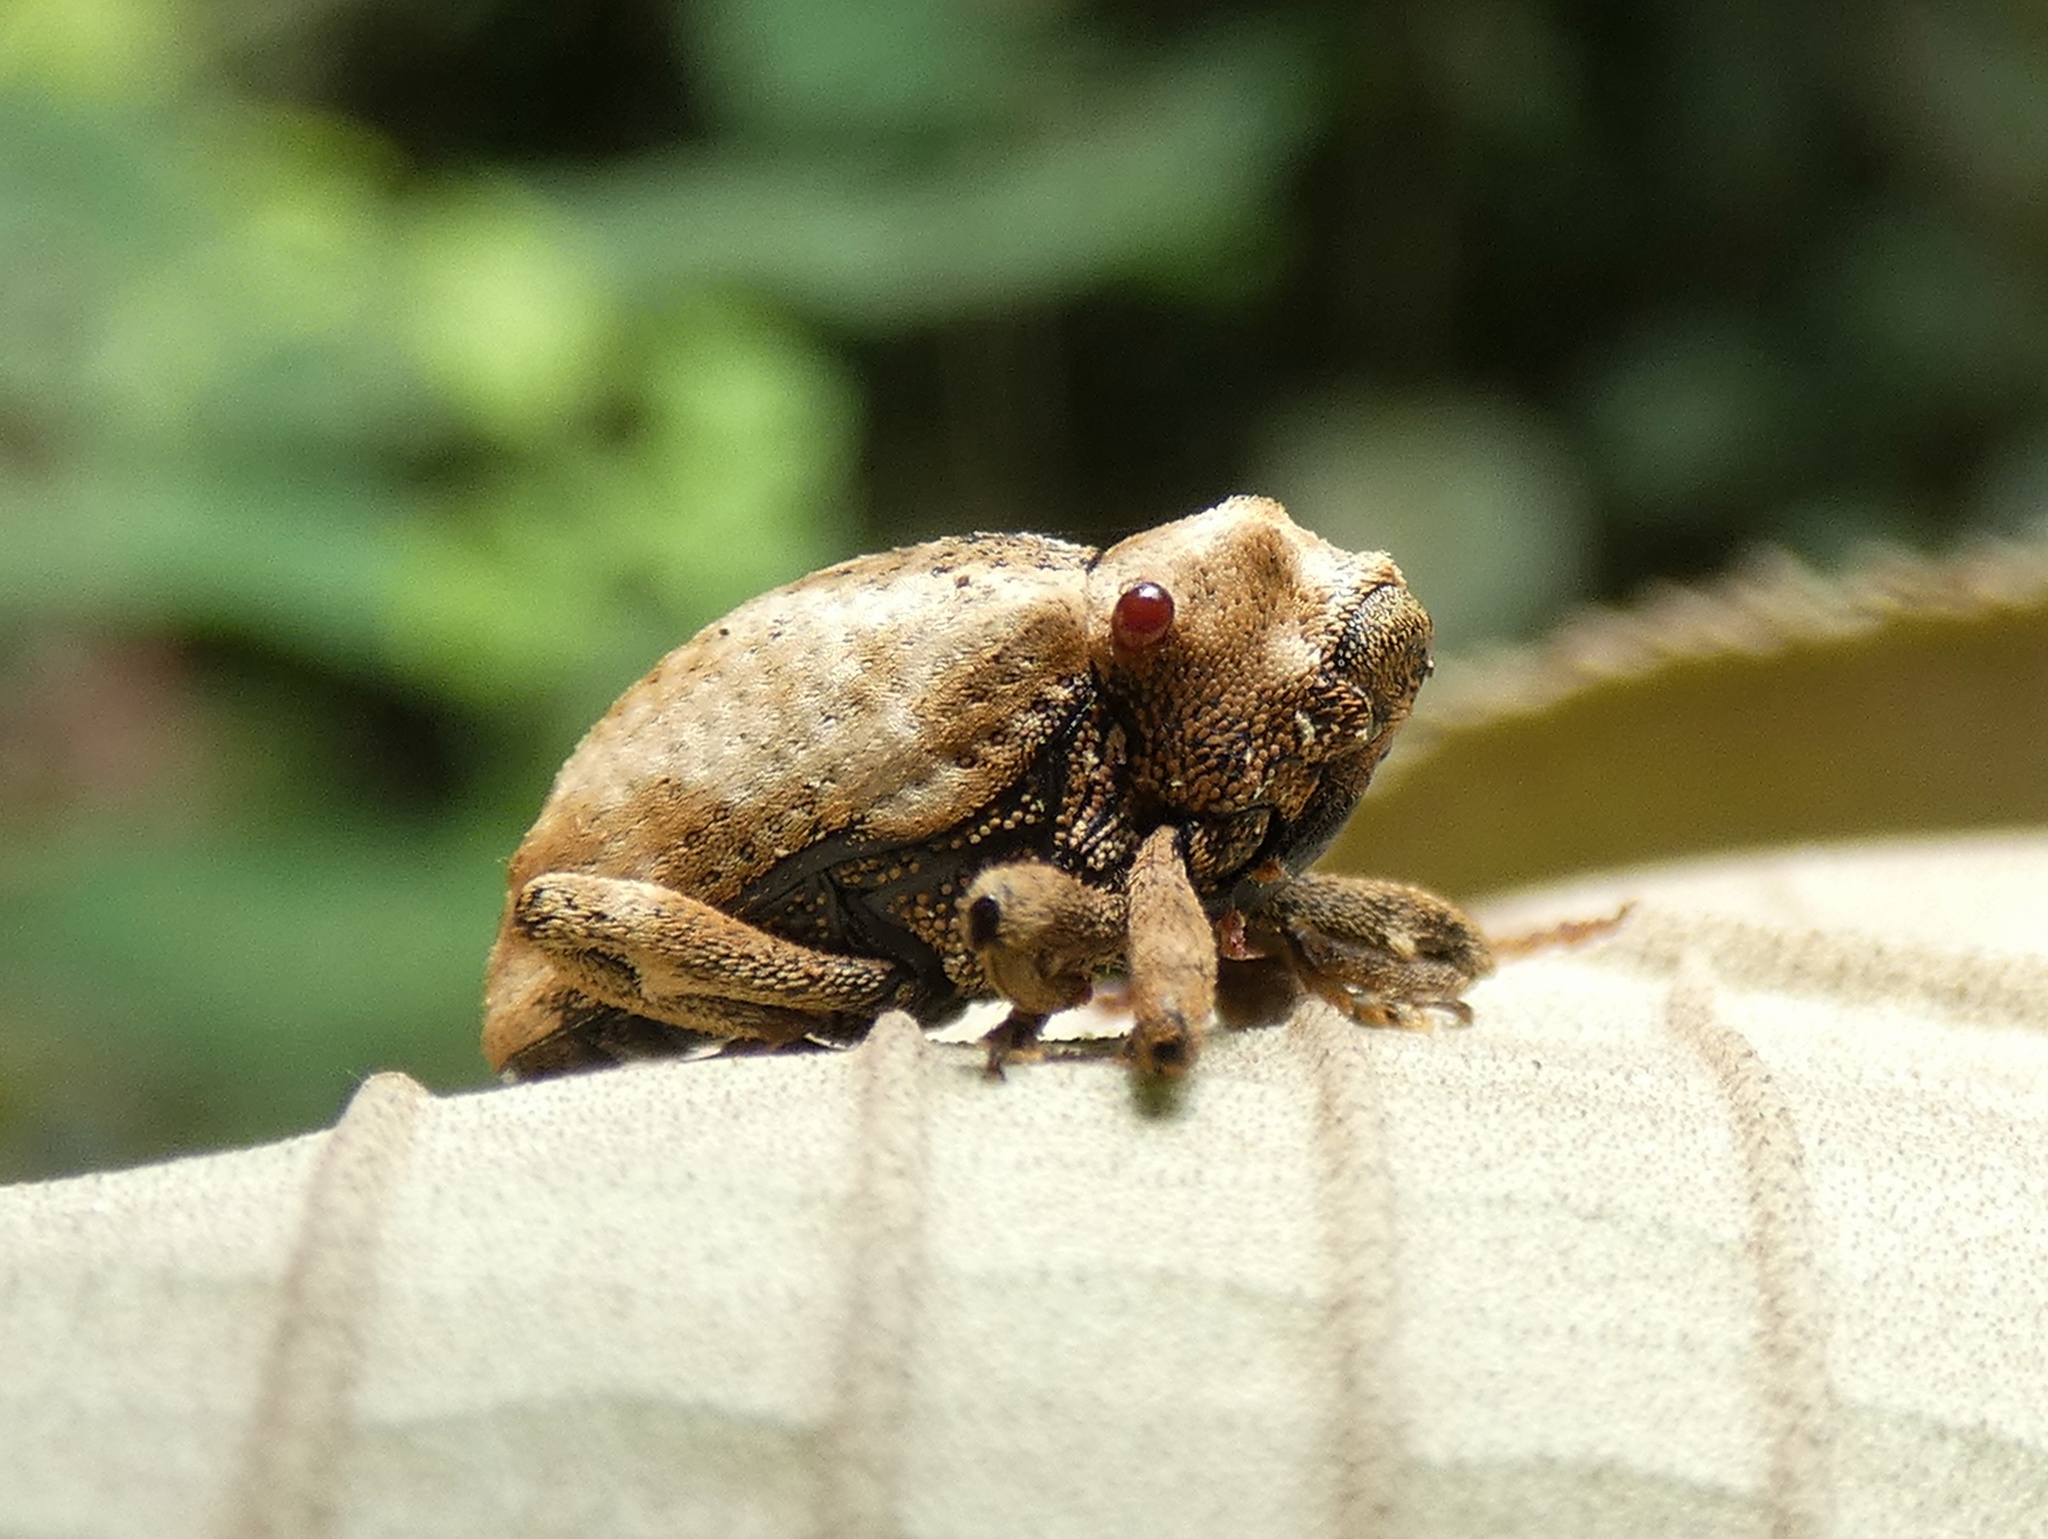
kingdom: Animalia
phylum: Arthropoda
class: Insecta
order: Coleoptera
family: Curculionidae
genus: Cryptorrhynchus
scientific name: Cryptorrhynchus melastomae
